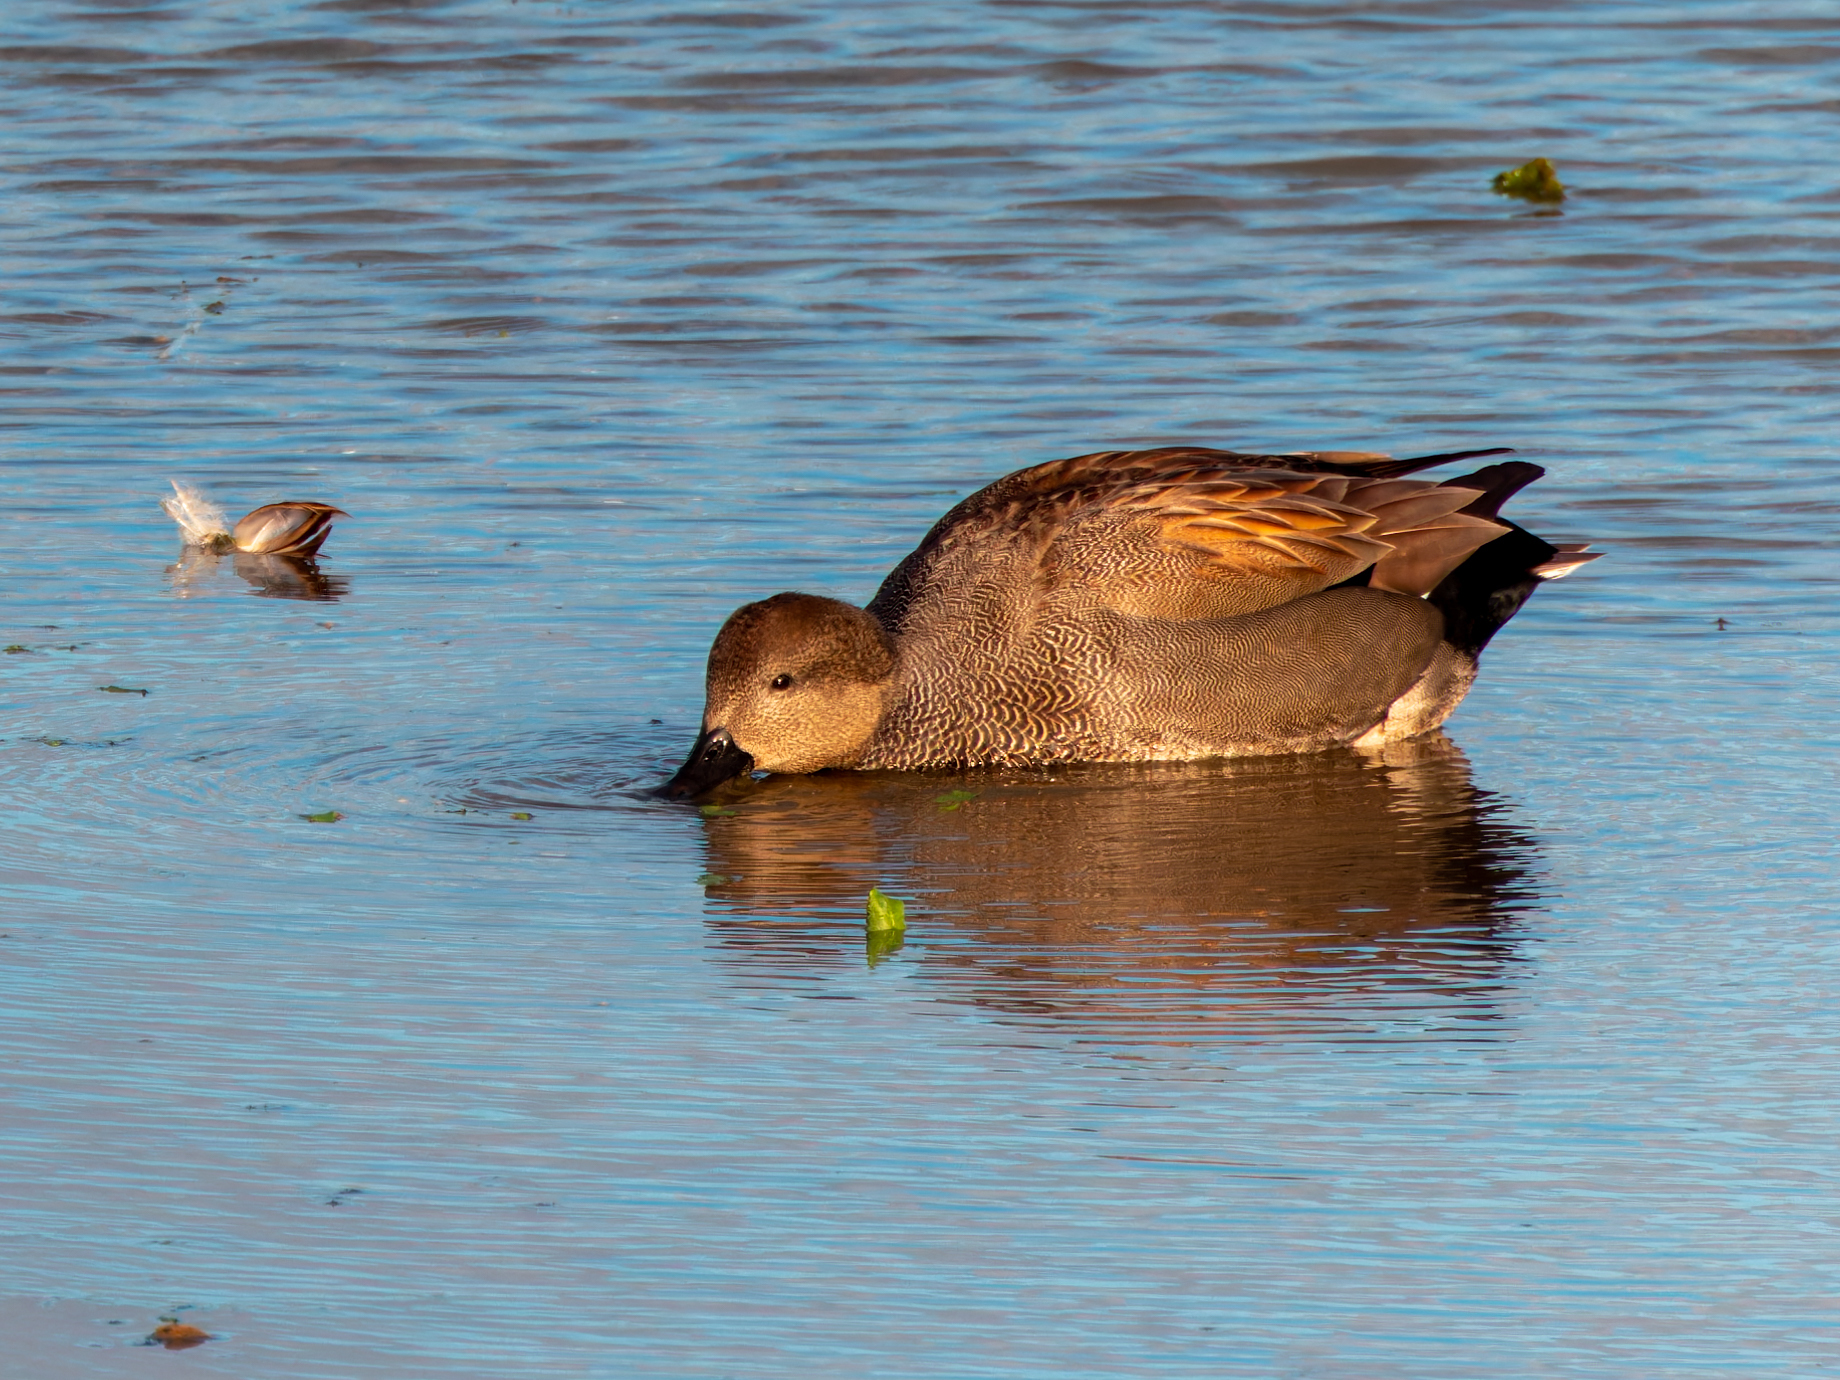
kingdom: Animalia
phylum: Chordata
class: Aves
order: Anseriformes
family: Anatidae
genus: Mareca
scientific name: Mareca strepera
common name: Gadwall
